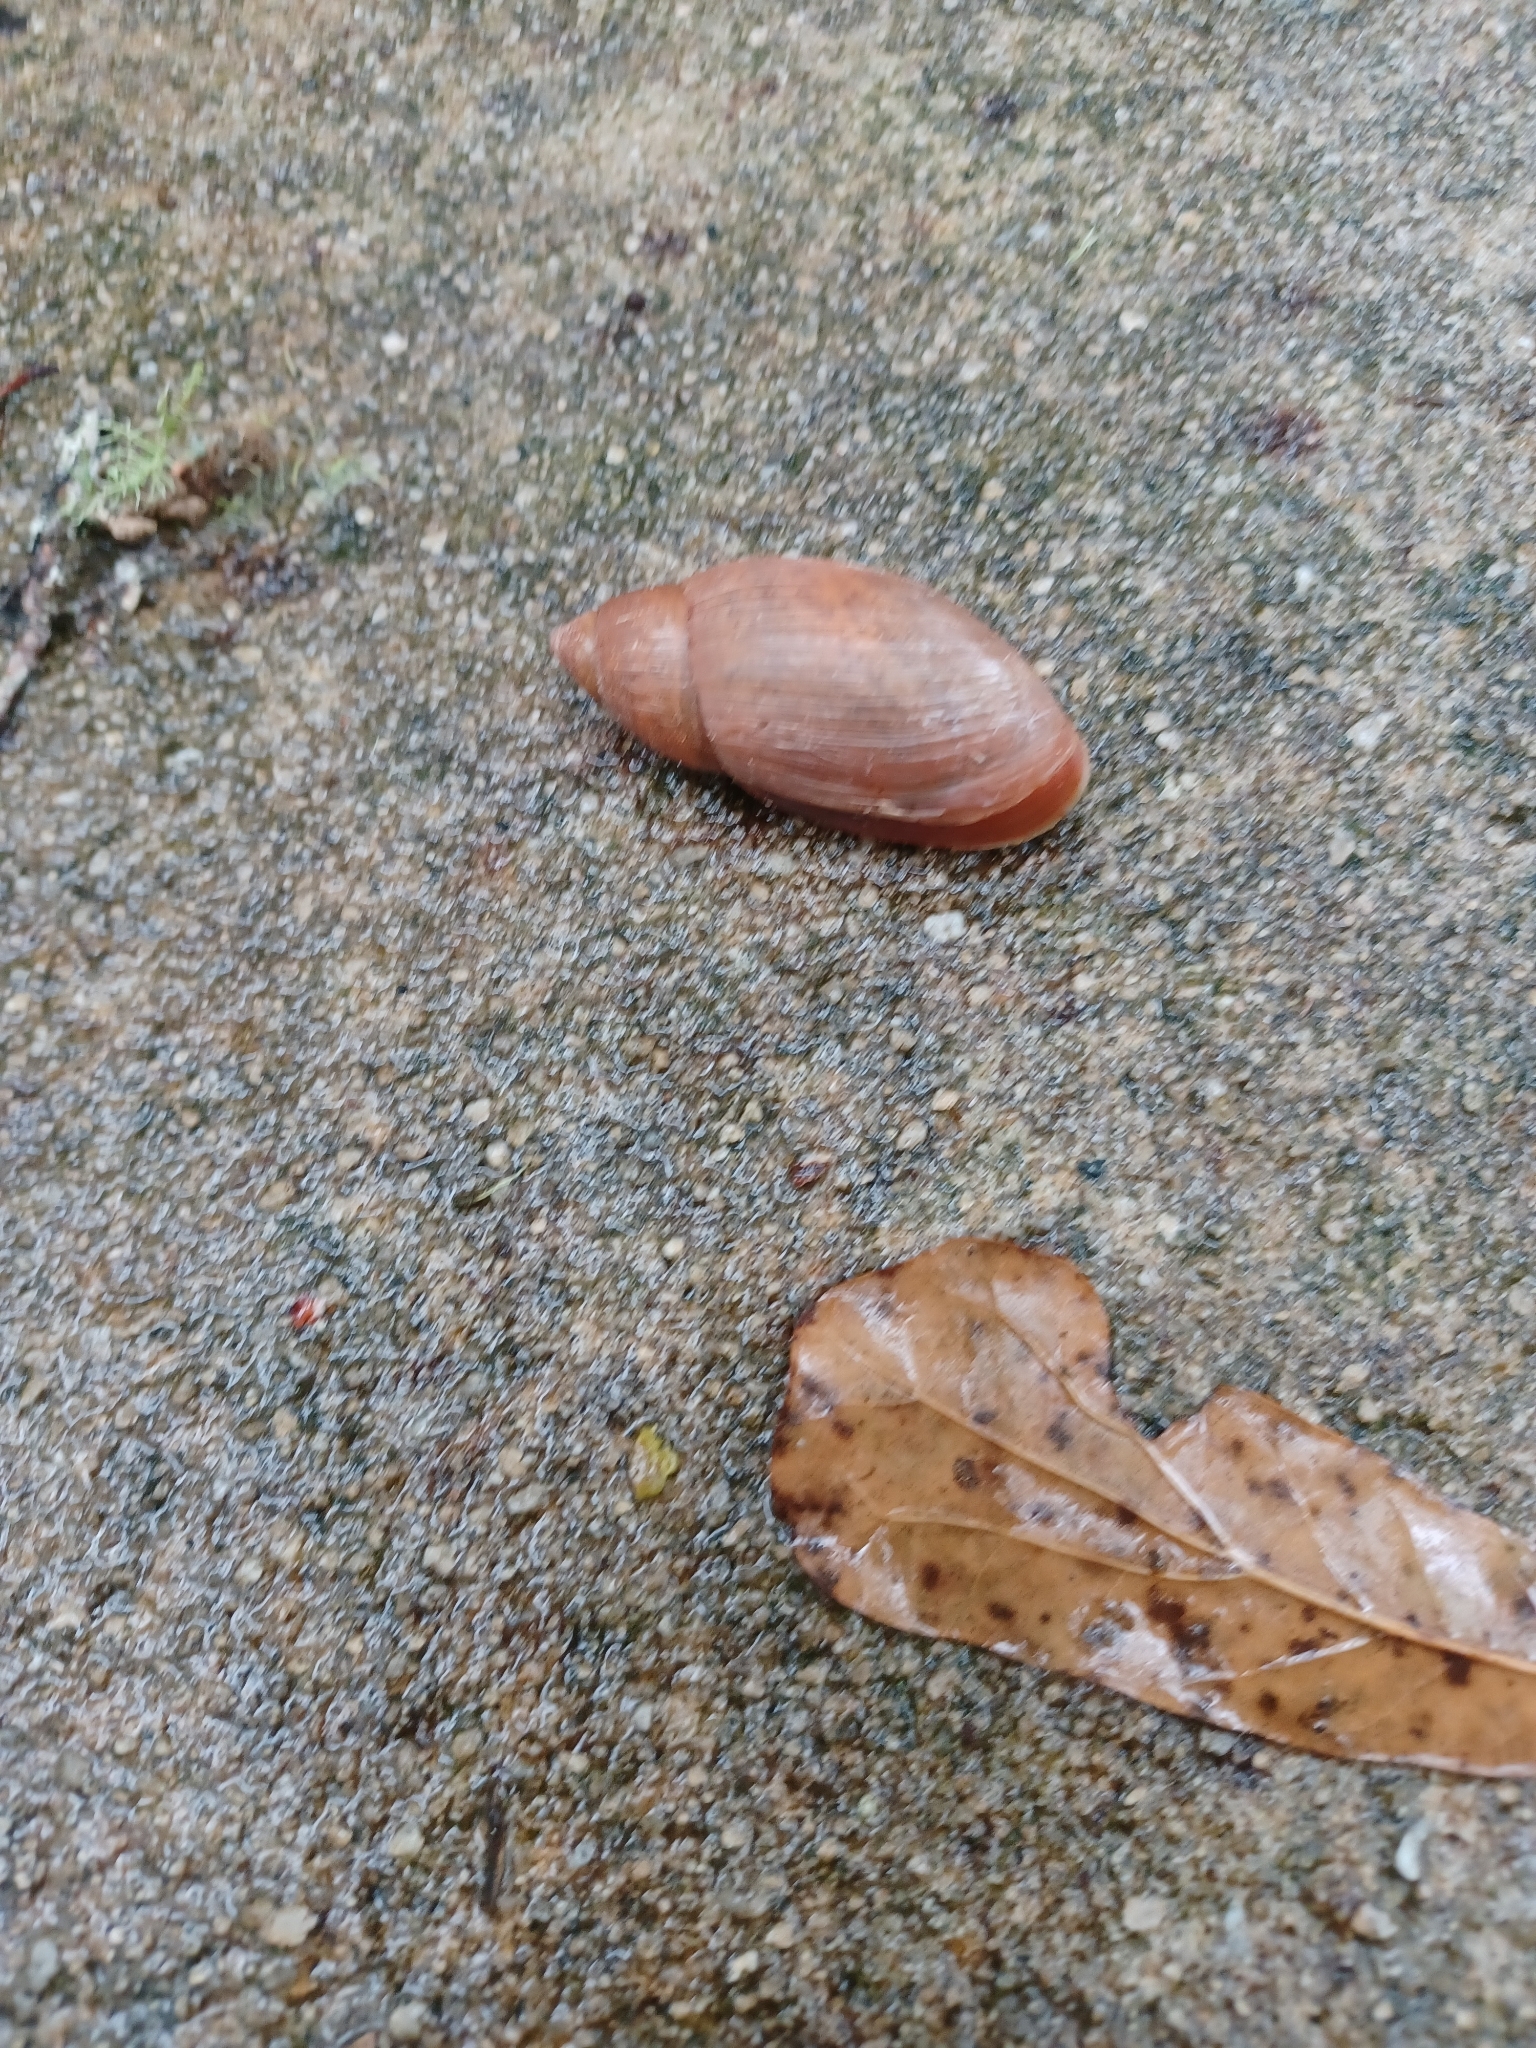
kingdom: Animalia
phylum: Mollusca
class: Gastropoda
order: Stylommatophora
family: Spiraxidae
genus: Euglandina
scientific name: Euglandina rosea
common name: Rosy wolfsnail
